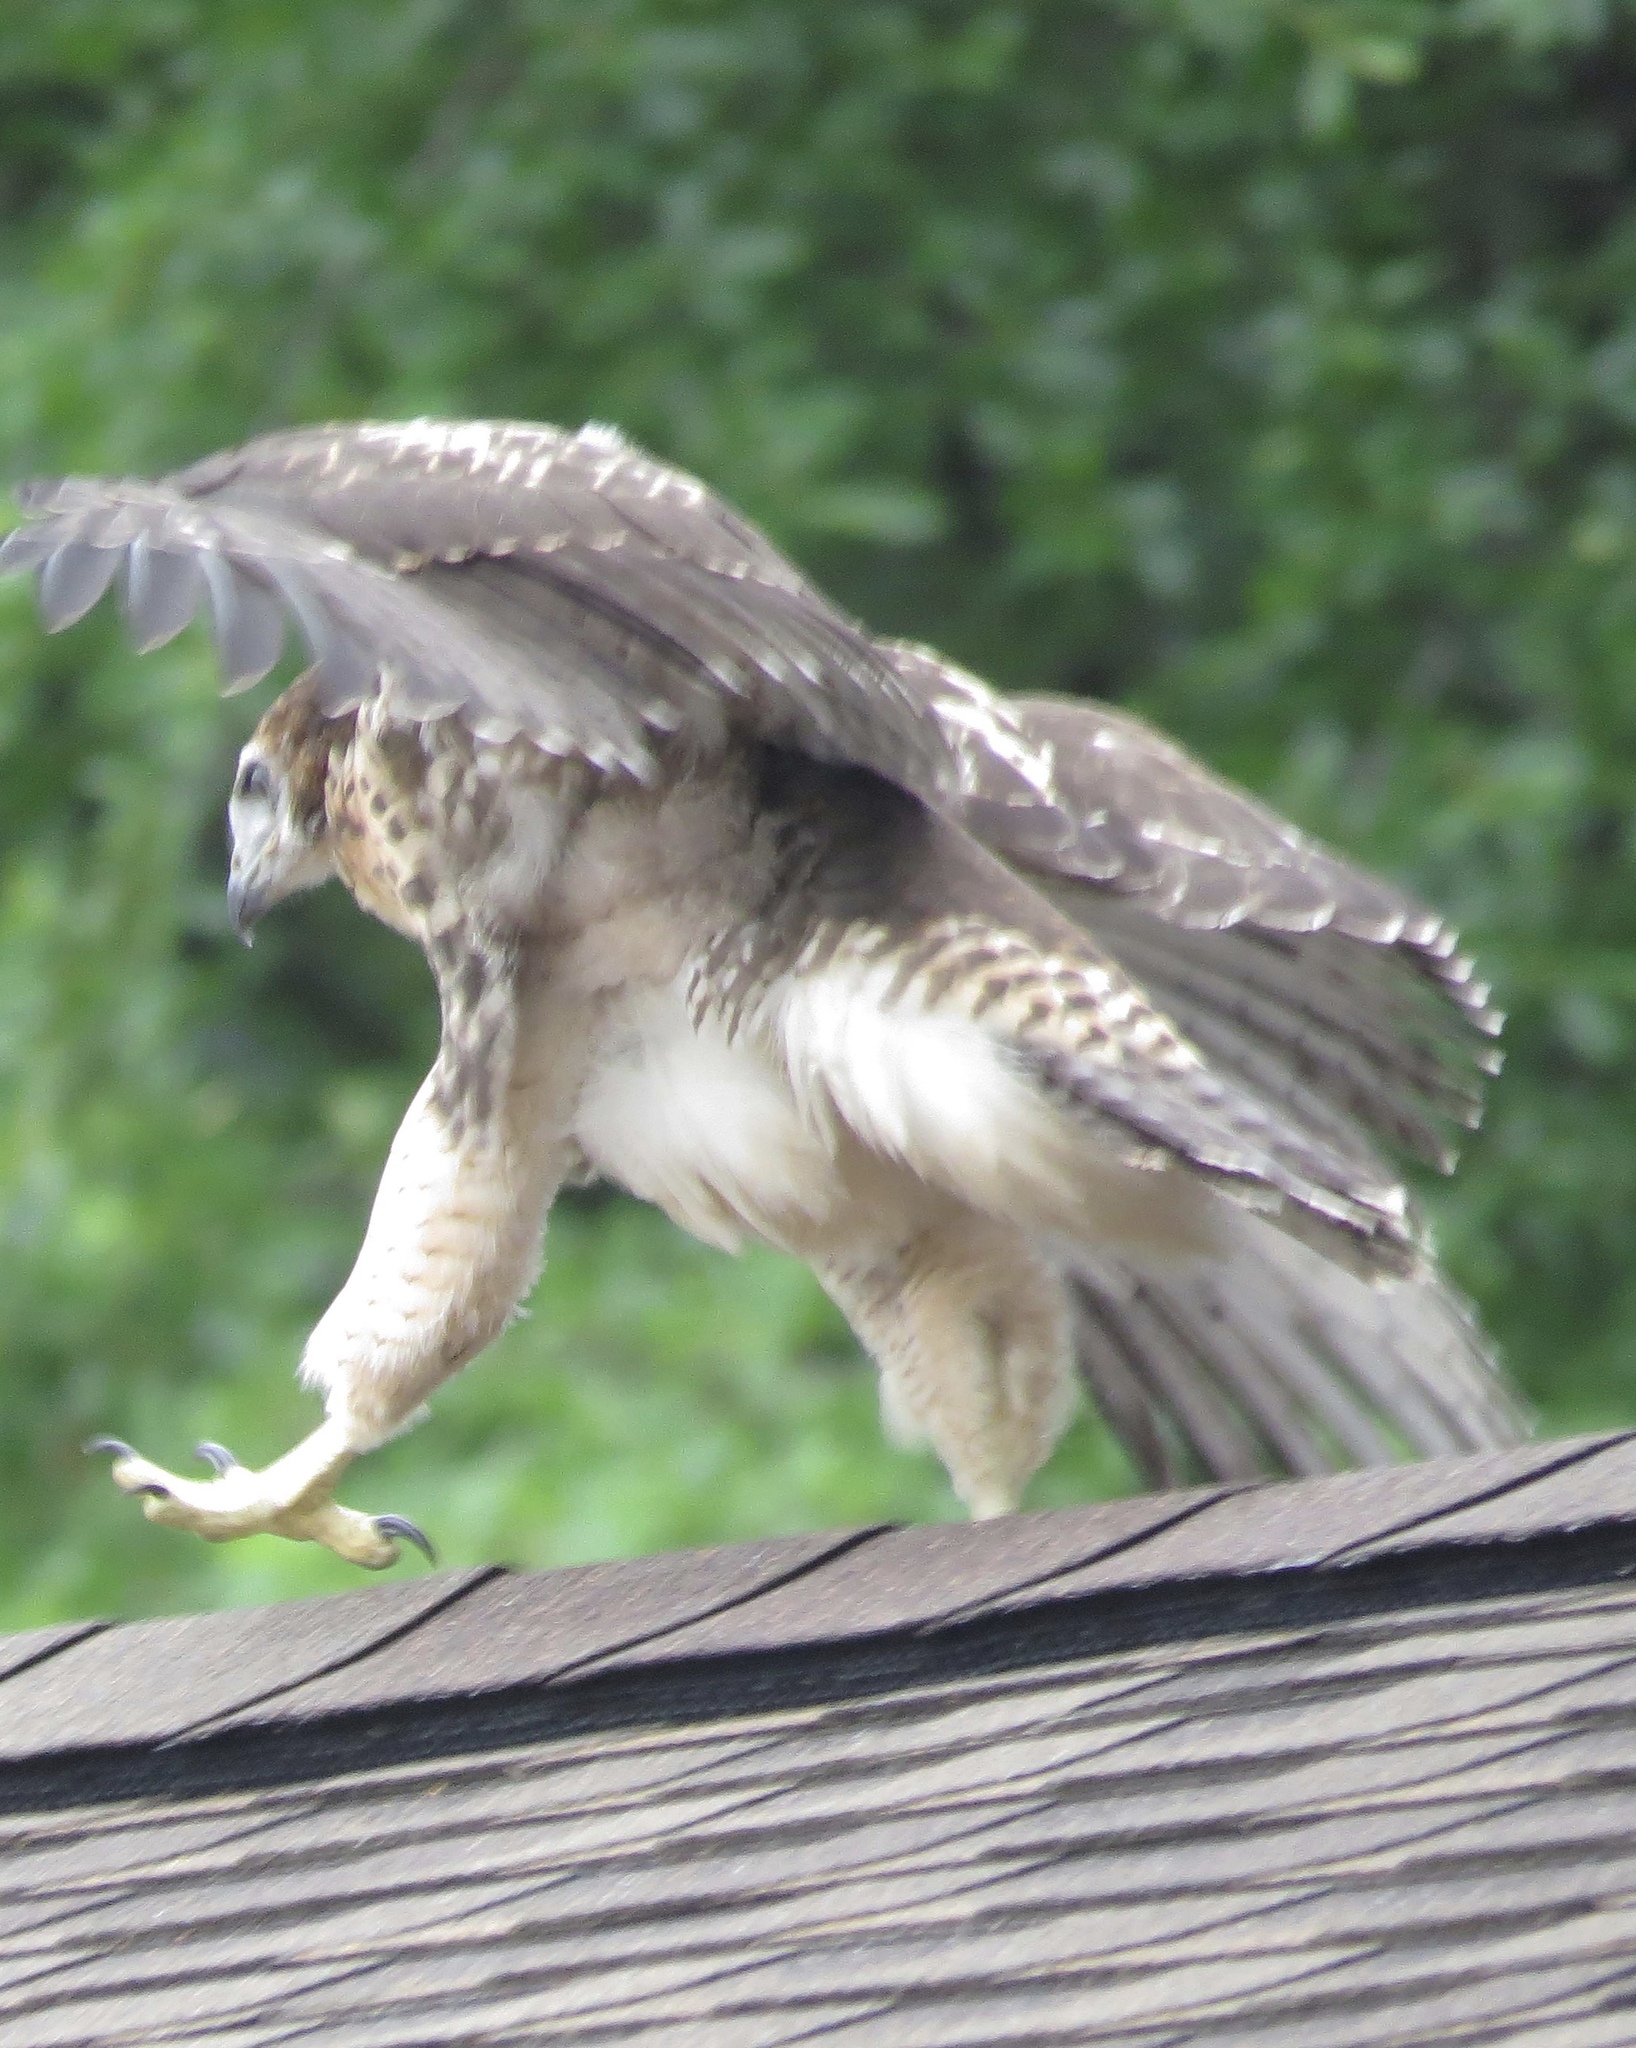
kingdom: Animalia
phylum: Chordata
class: Aves
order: Accipitriformes
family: Accipitridae
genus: Buteo
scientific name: Buteo jamaicensis
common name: Red-tailed hawk
